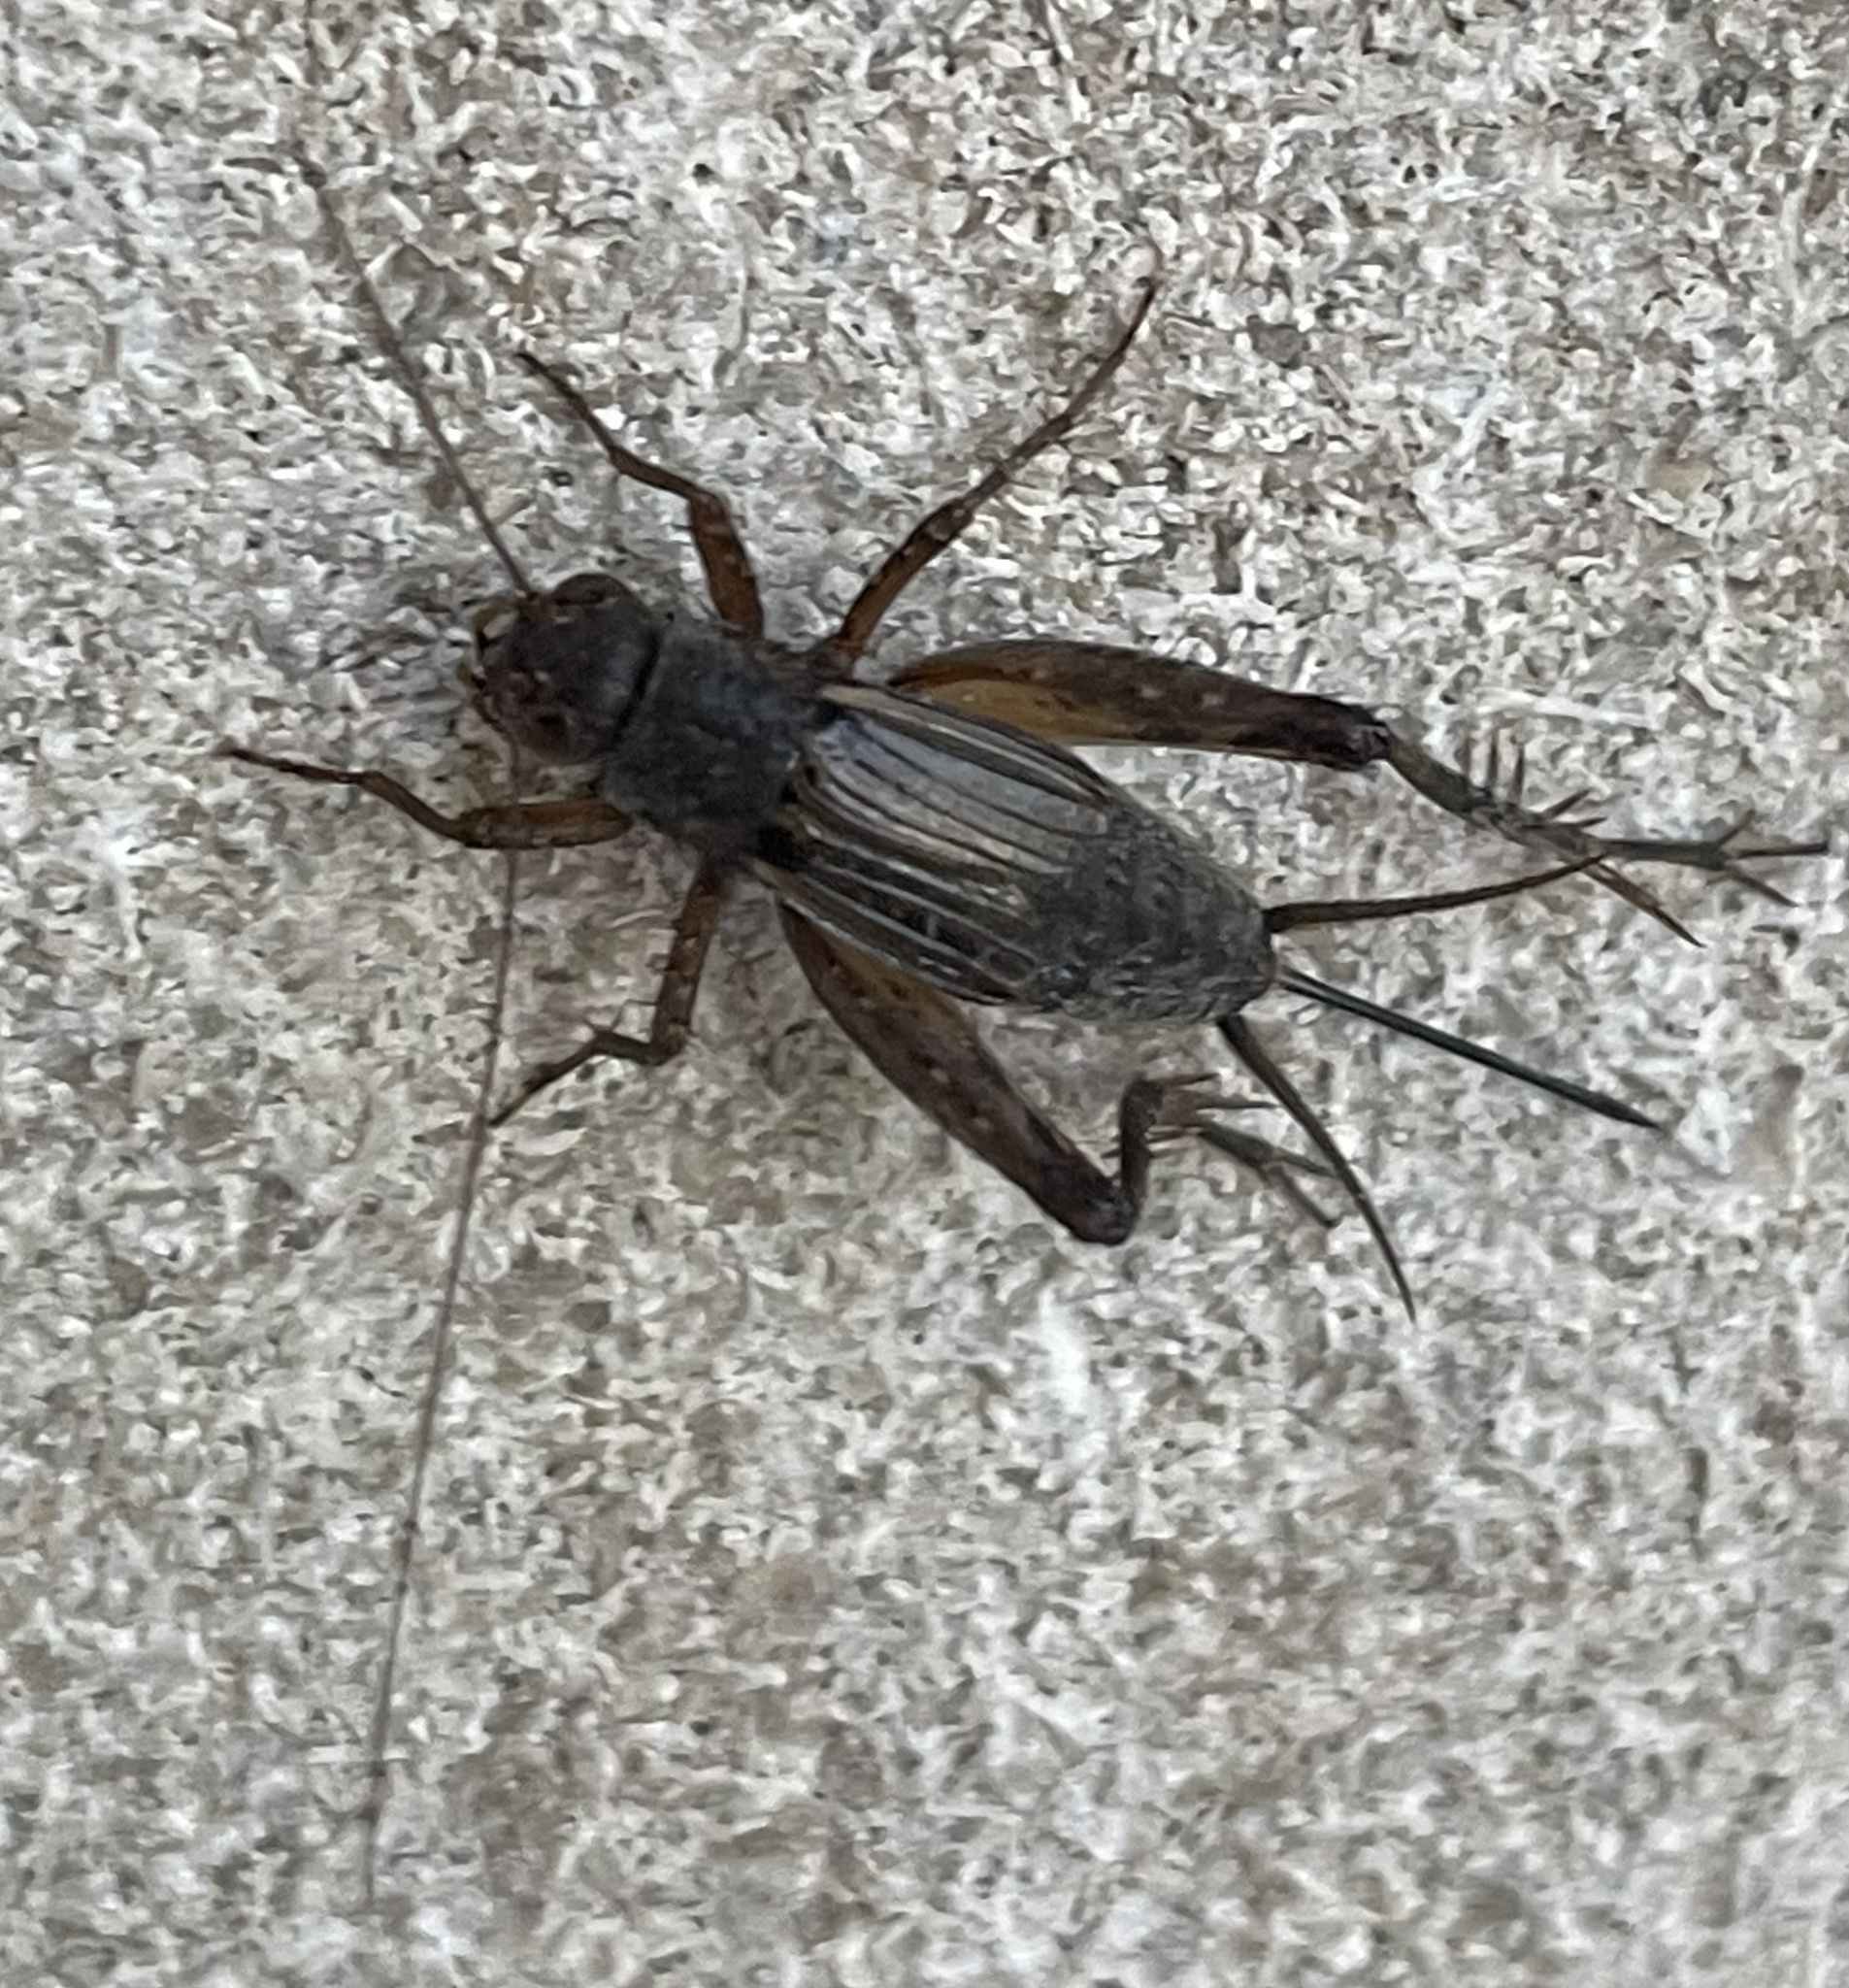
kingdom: Animalia
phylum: Arthropoda
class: Insecta
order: Orthoptera
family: Trigonidiidae
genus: Allonemobius
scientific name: Allonemobius allardi
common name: Allard’s ground cricket
